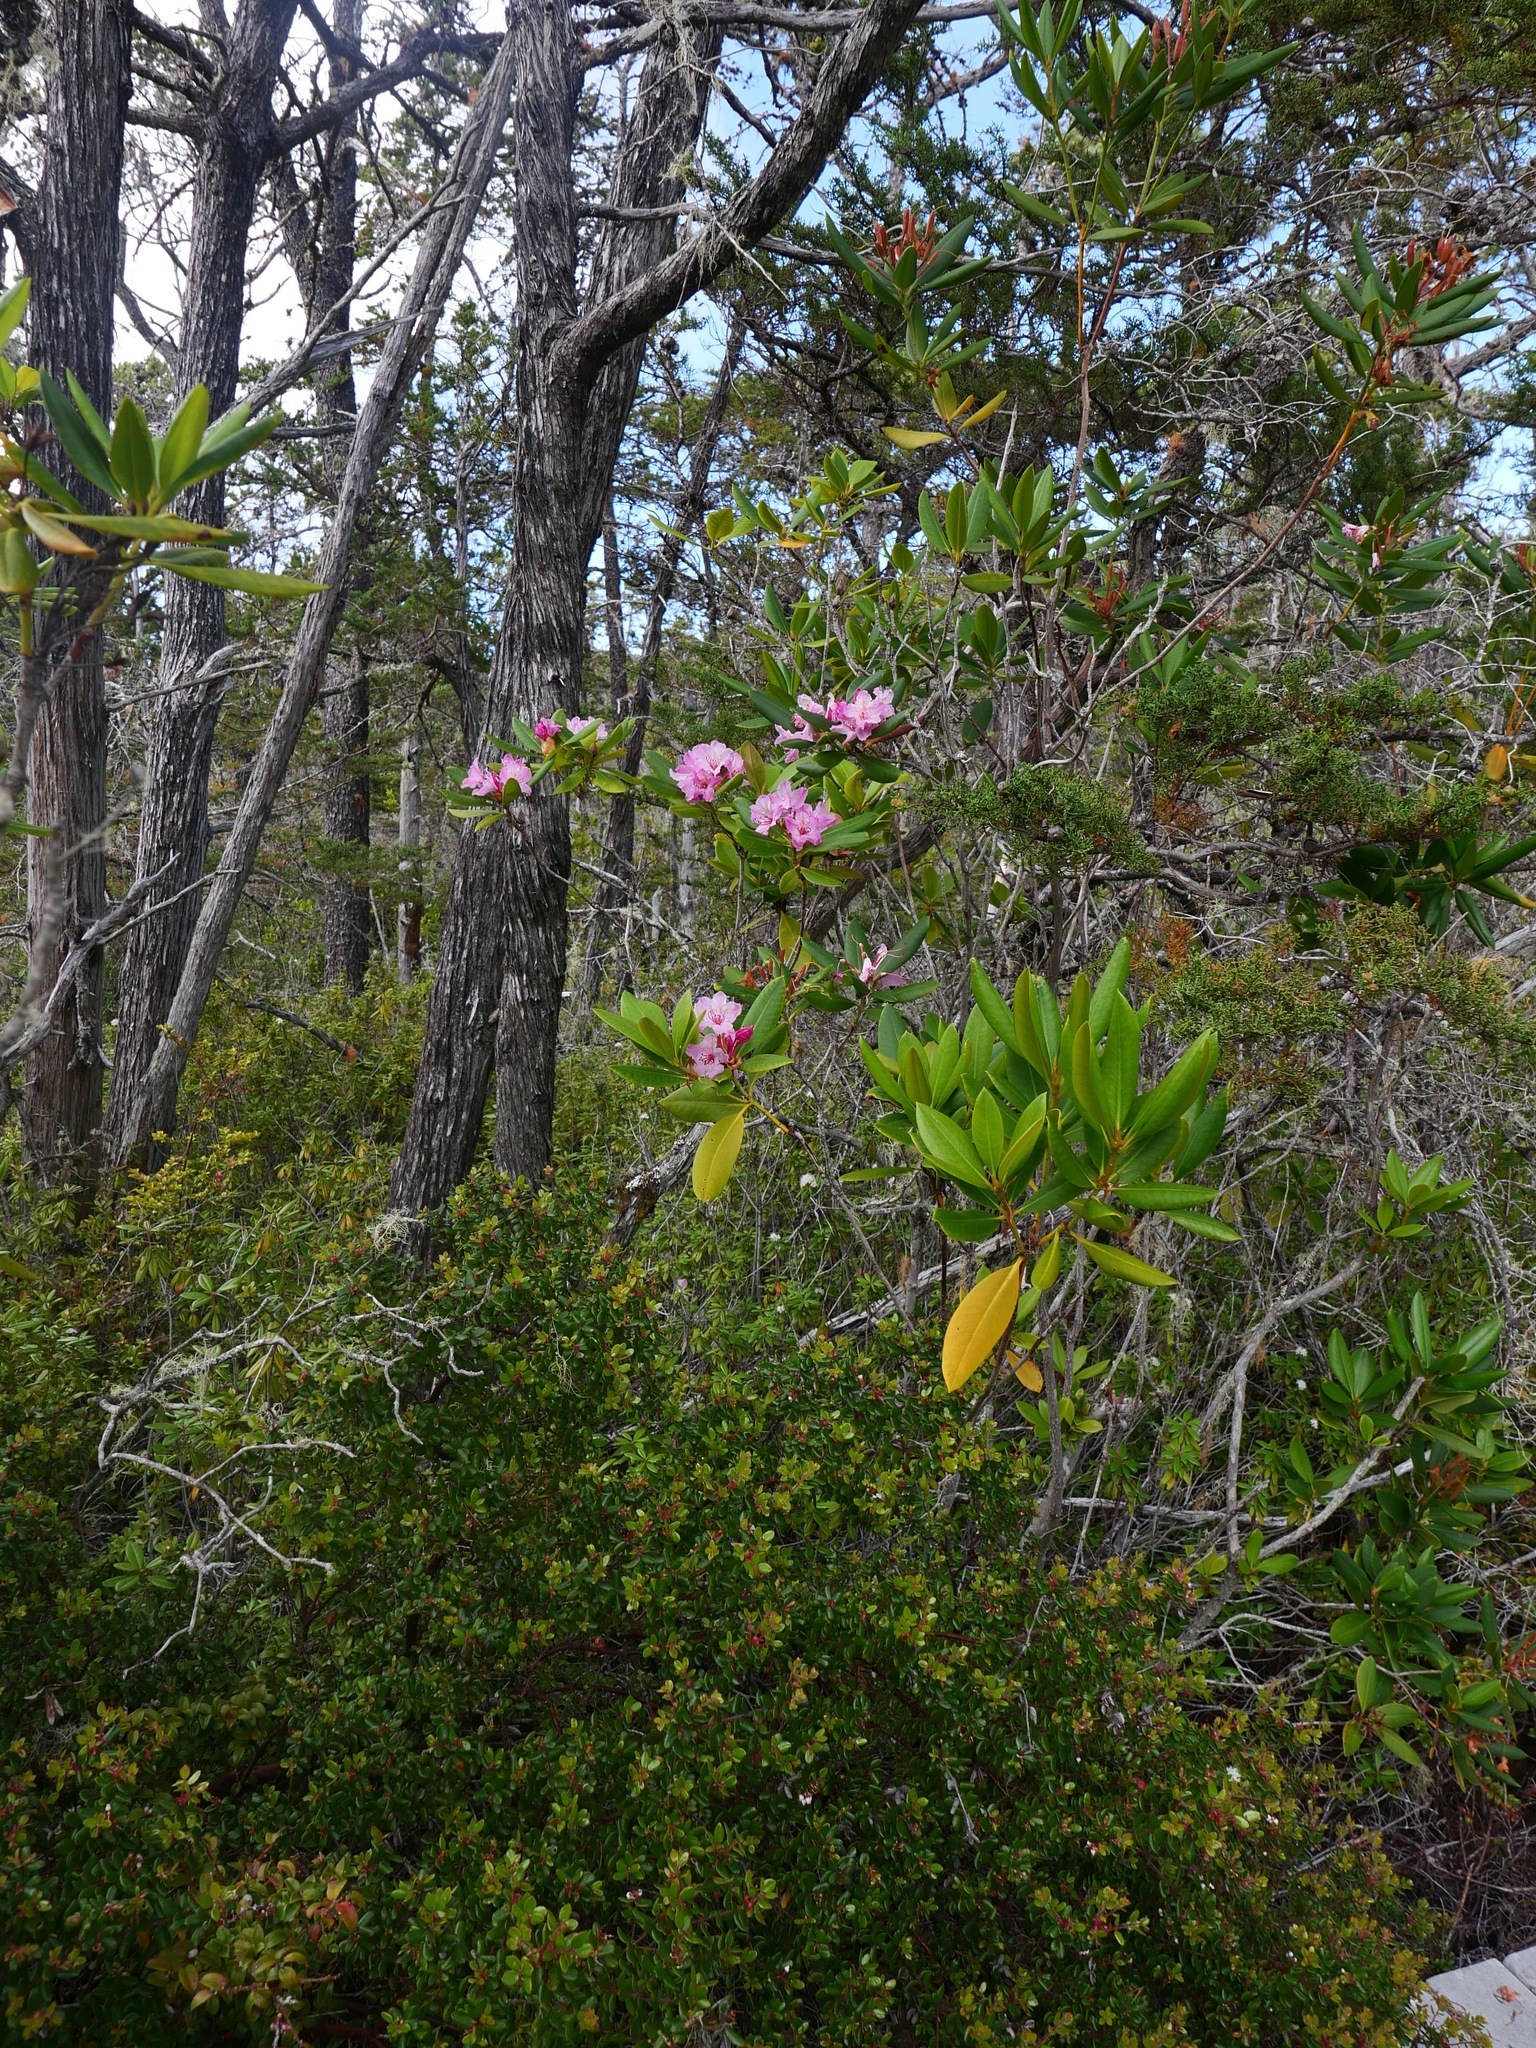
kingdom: Plantae
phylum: Tracheophyta
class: Magnoliopsida
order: Ericales
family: Ericaceae
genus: Rhododendron
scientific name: Rhododendron macrophyllum
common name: California rose bay
